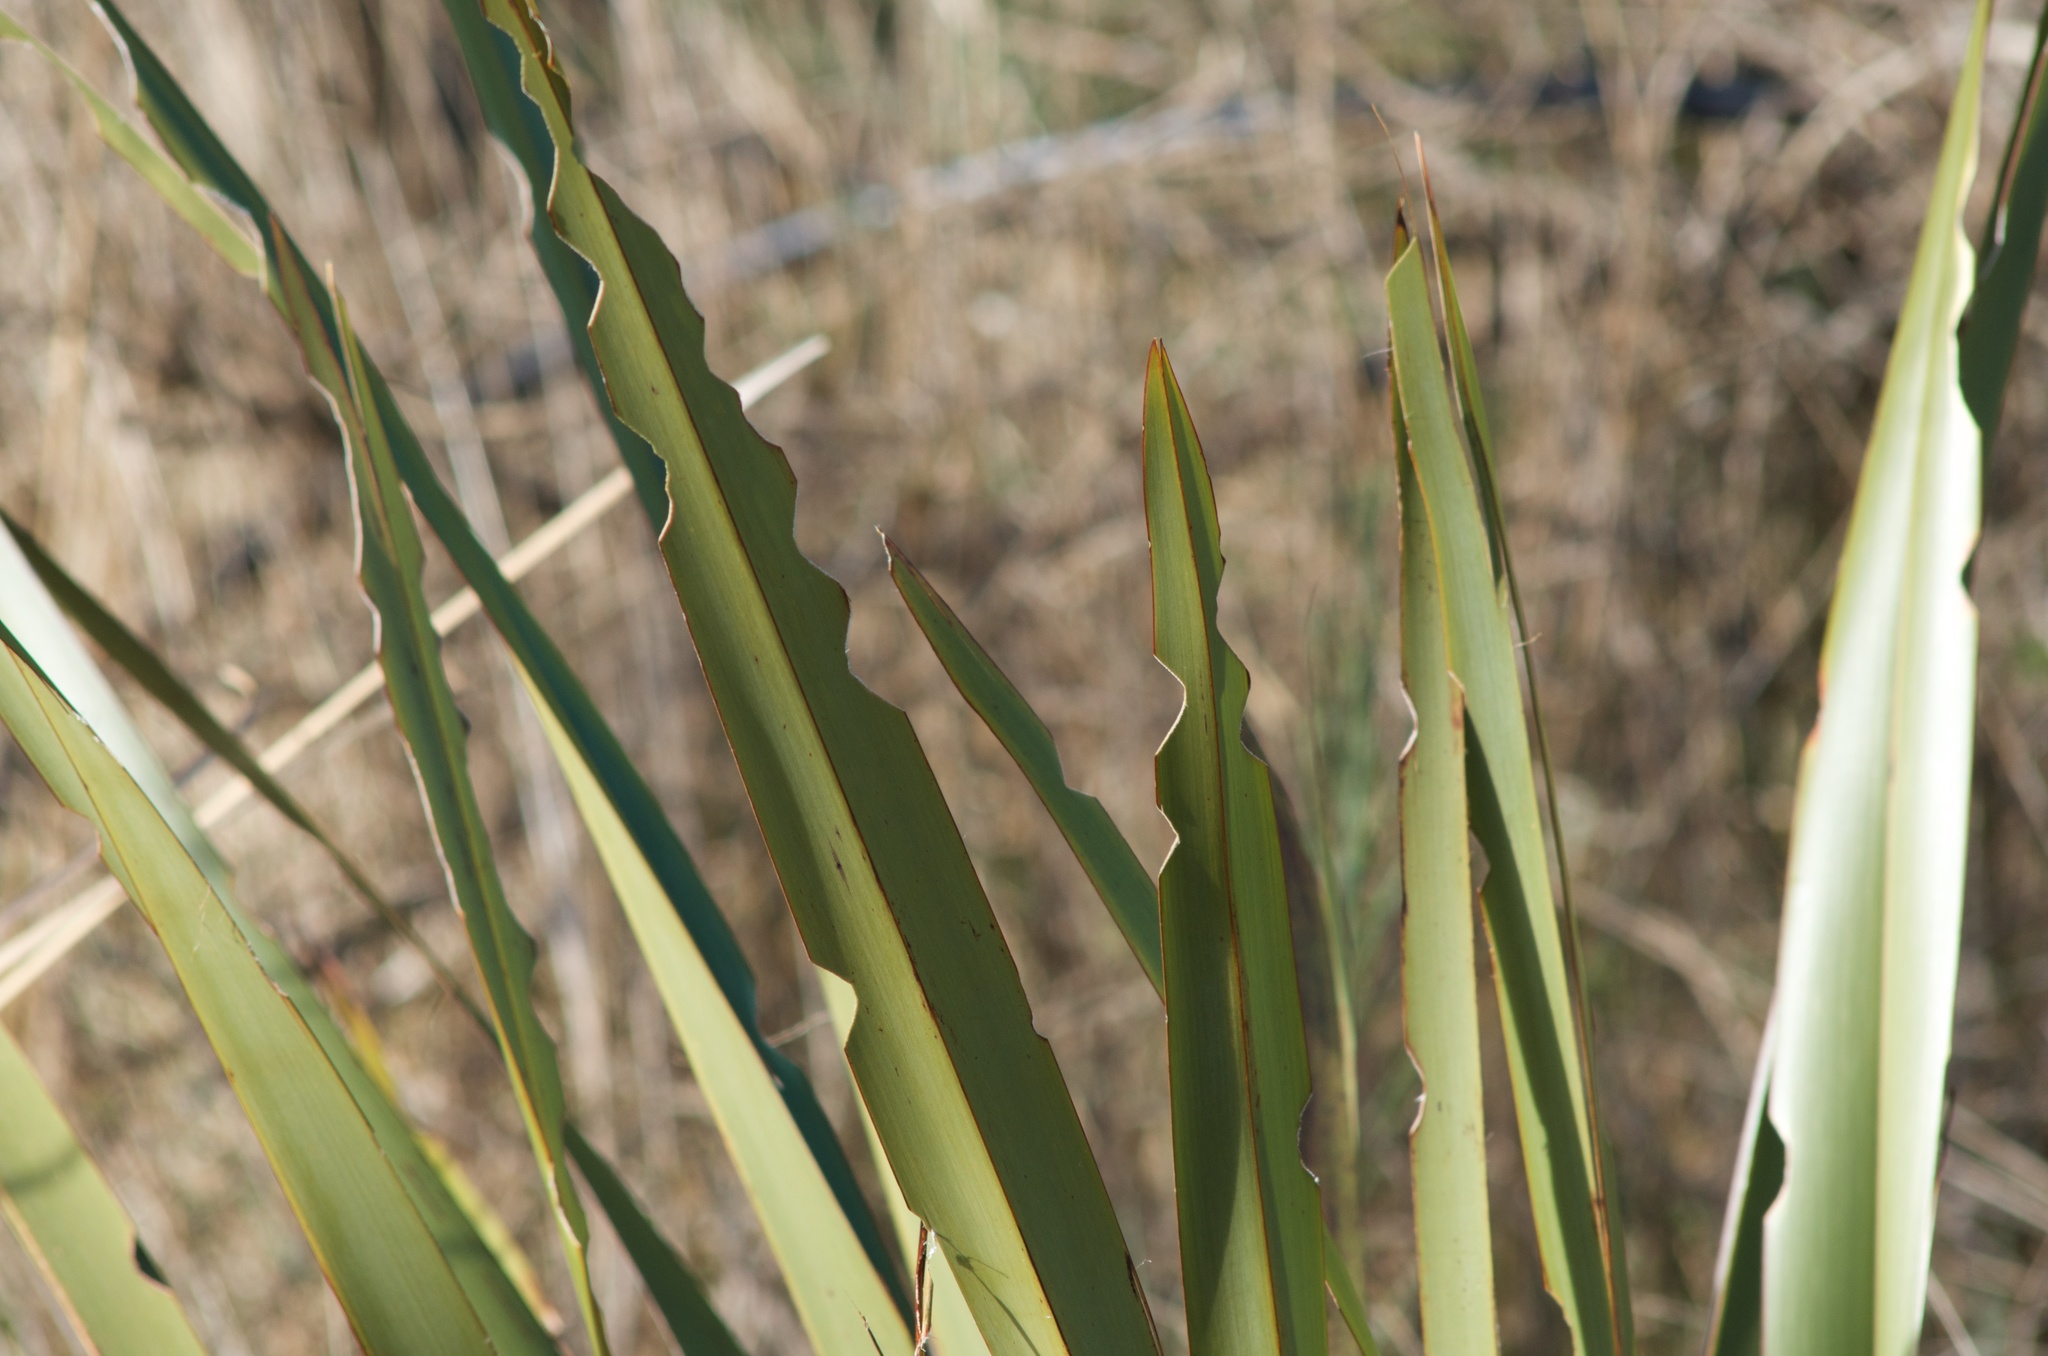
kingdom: Animalia
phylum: Arthropoda
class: Insecta
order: Lepidoptera
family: Noctuidae
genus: Ichneutica
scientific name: Ichneutica
